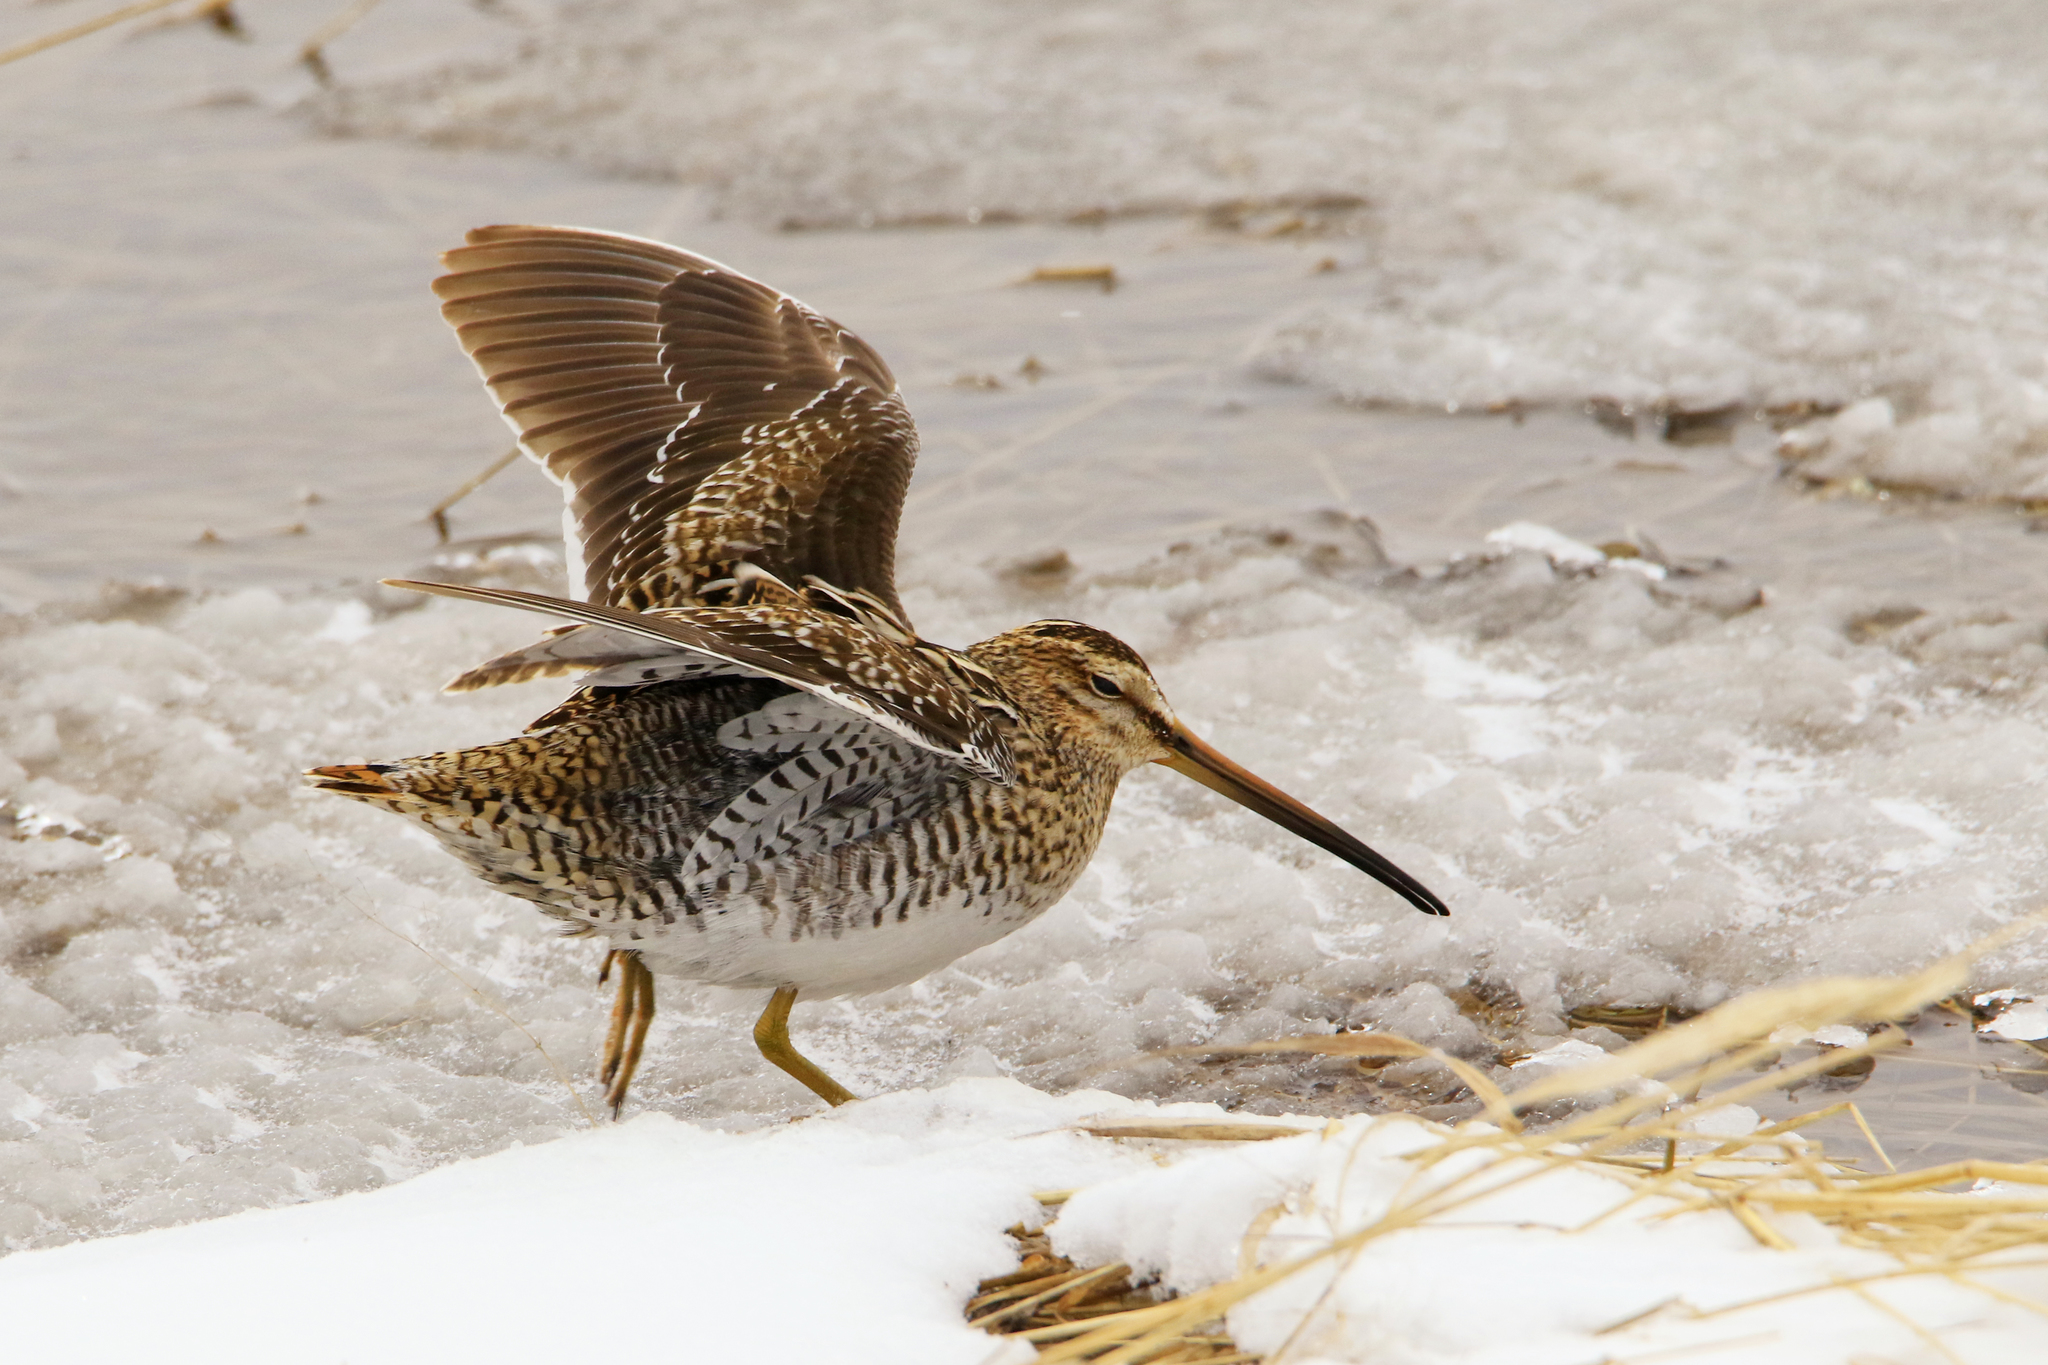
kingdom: Animalia
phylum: Chordata
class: Aves
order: Charadriiformes
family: Scolopacidae
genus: Gallinago
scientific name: Gallinago gallinago
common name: Common snipe
